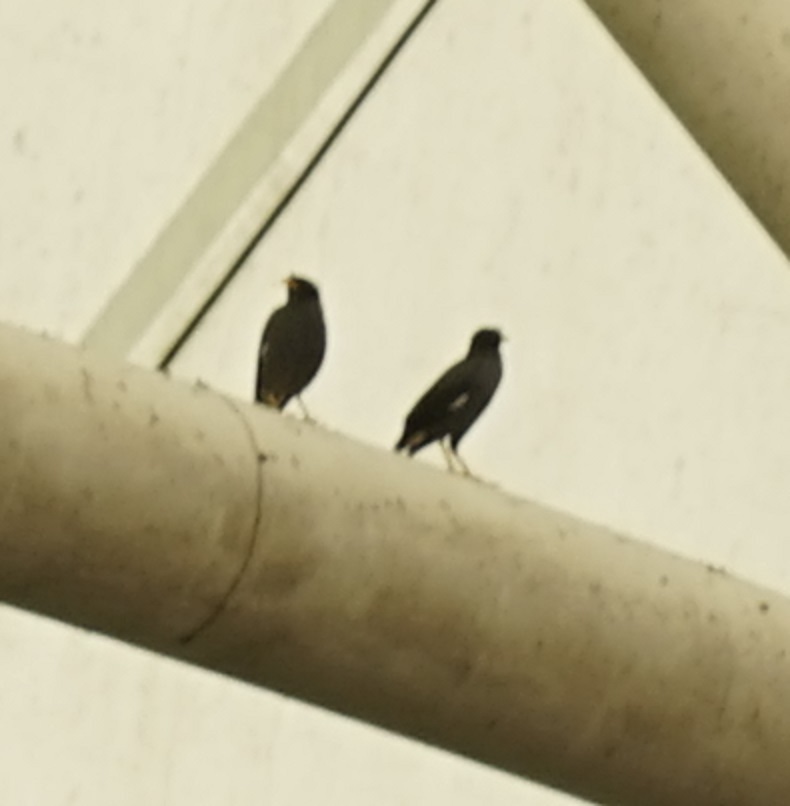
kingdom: Animalia
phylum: Chordata
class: Aves
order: Passeriformes
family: Sturnidae
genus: Acridotheres
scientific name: Acridotheres javanicus
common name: Javan myna
